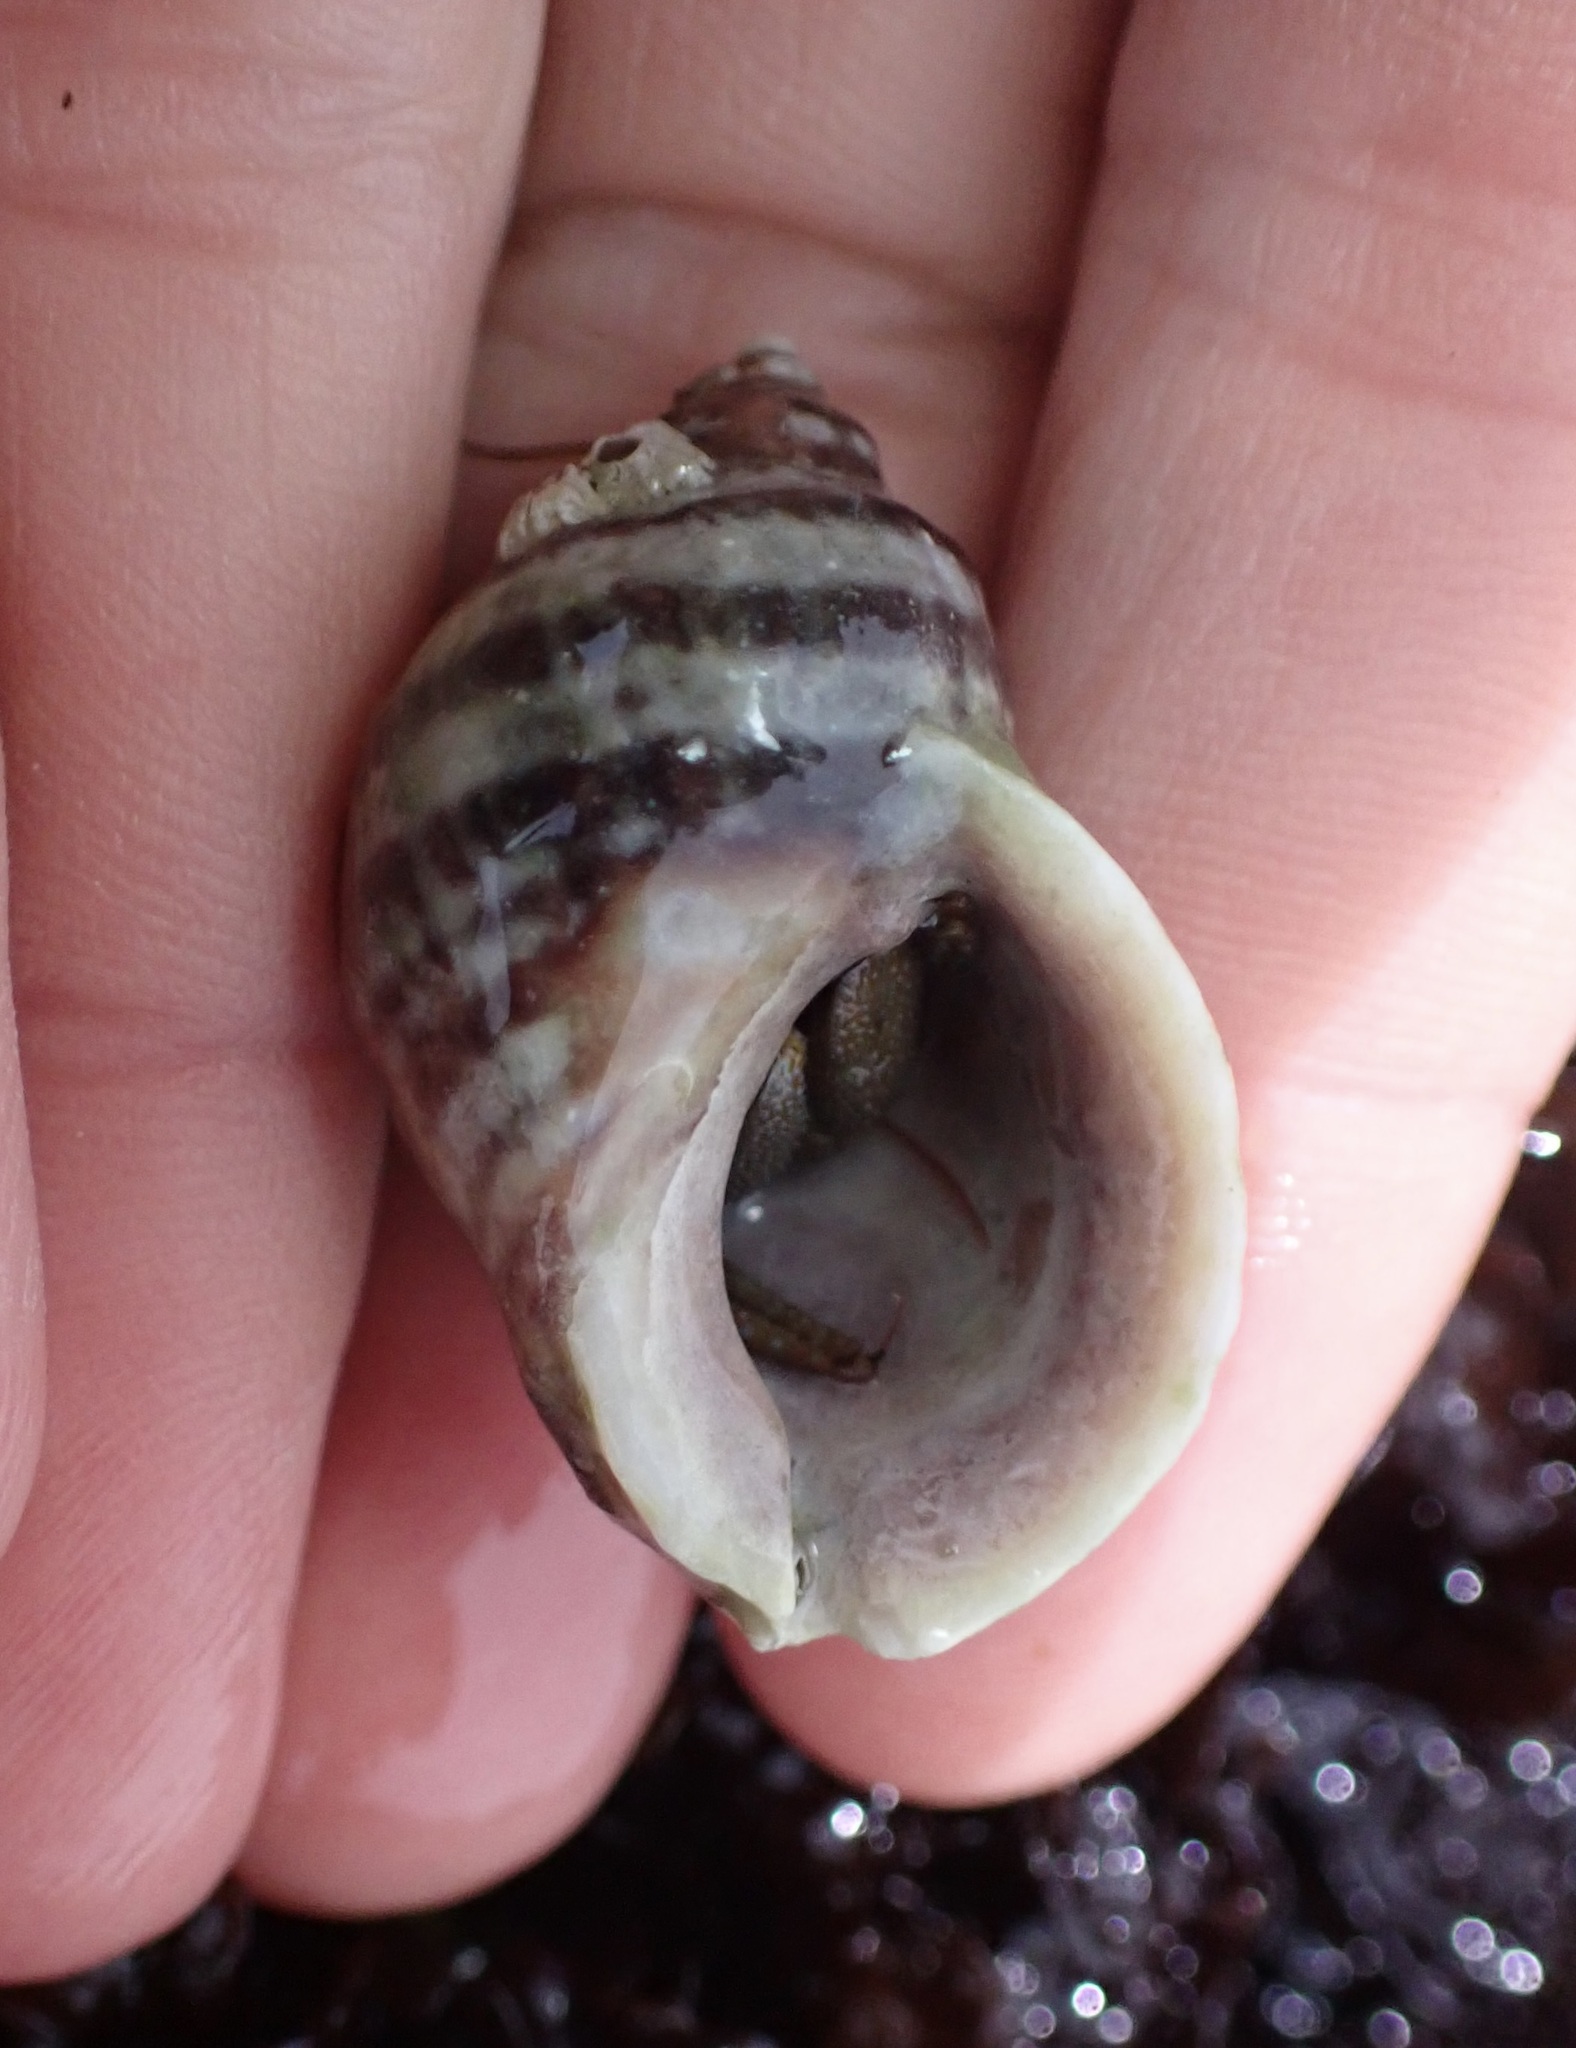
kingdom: Animalia
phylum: Mollusca
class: Gastropoda
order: Neogastropoda
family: Muricidae
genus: Nucella
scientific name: Nucella emarginata
